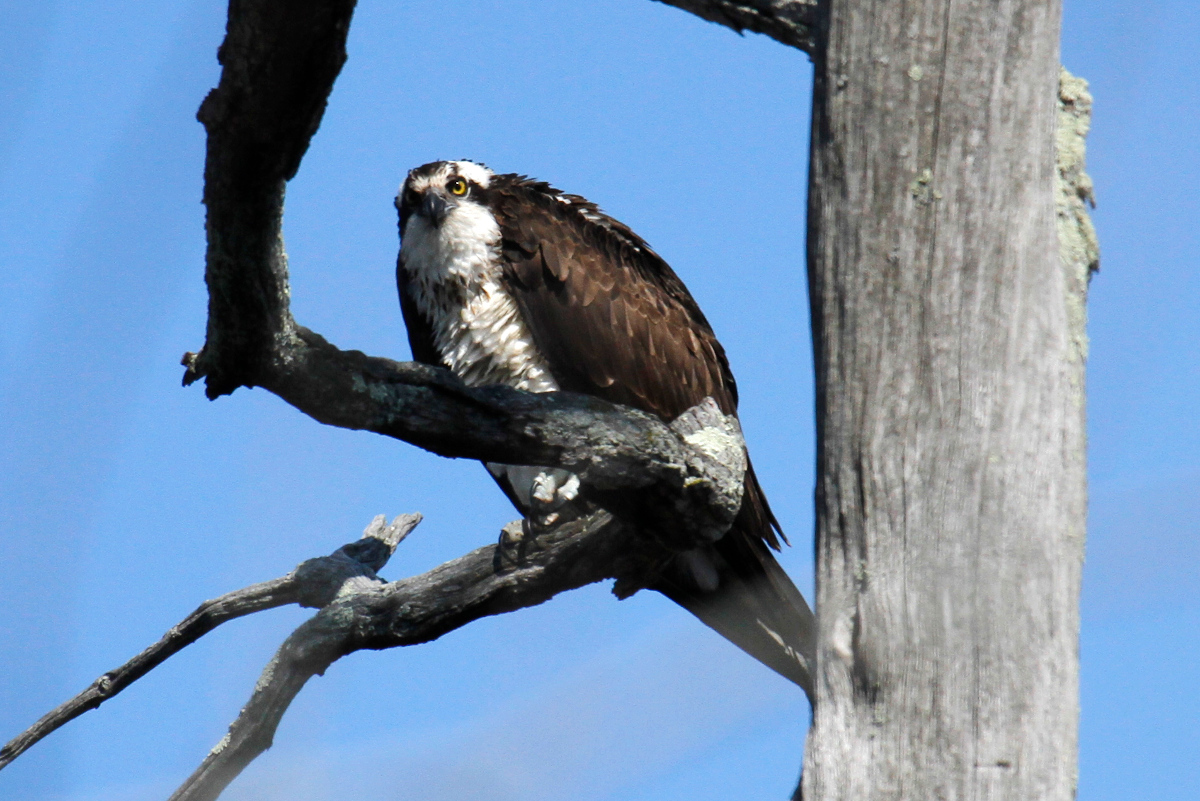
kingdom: Animalia
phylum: Chordata
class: Aves
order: Accipitriformes
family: Pandionidae
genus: Pandion
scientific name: Pandion haliaetus
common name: Osprey
